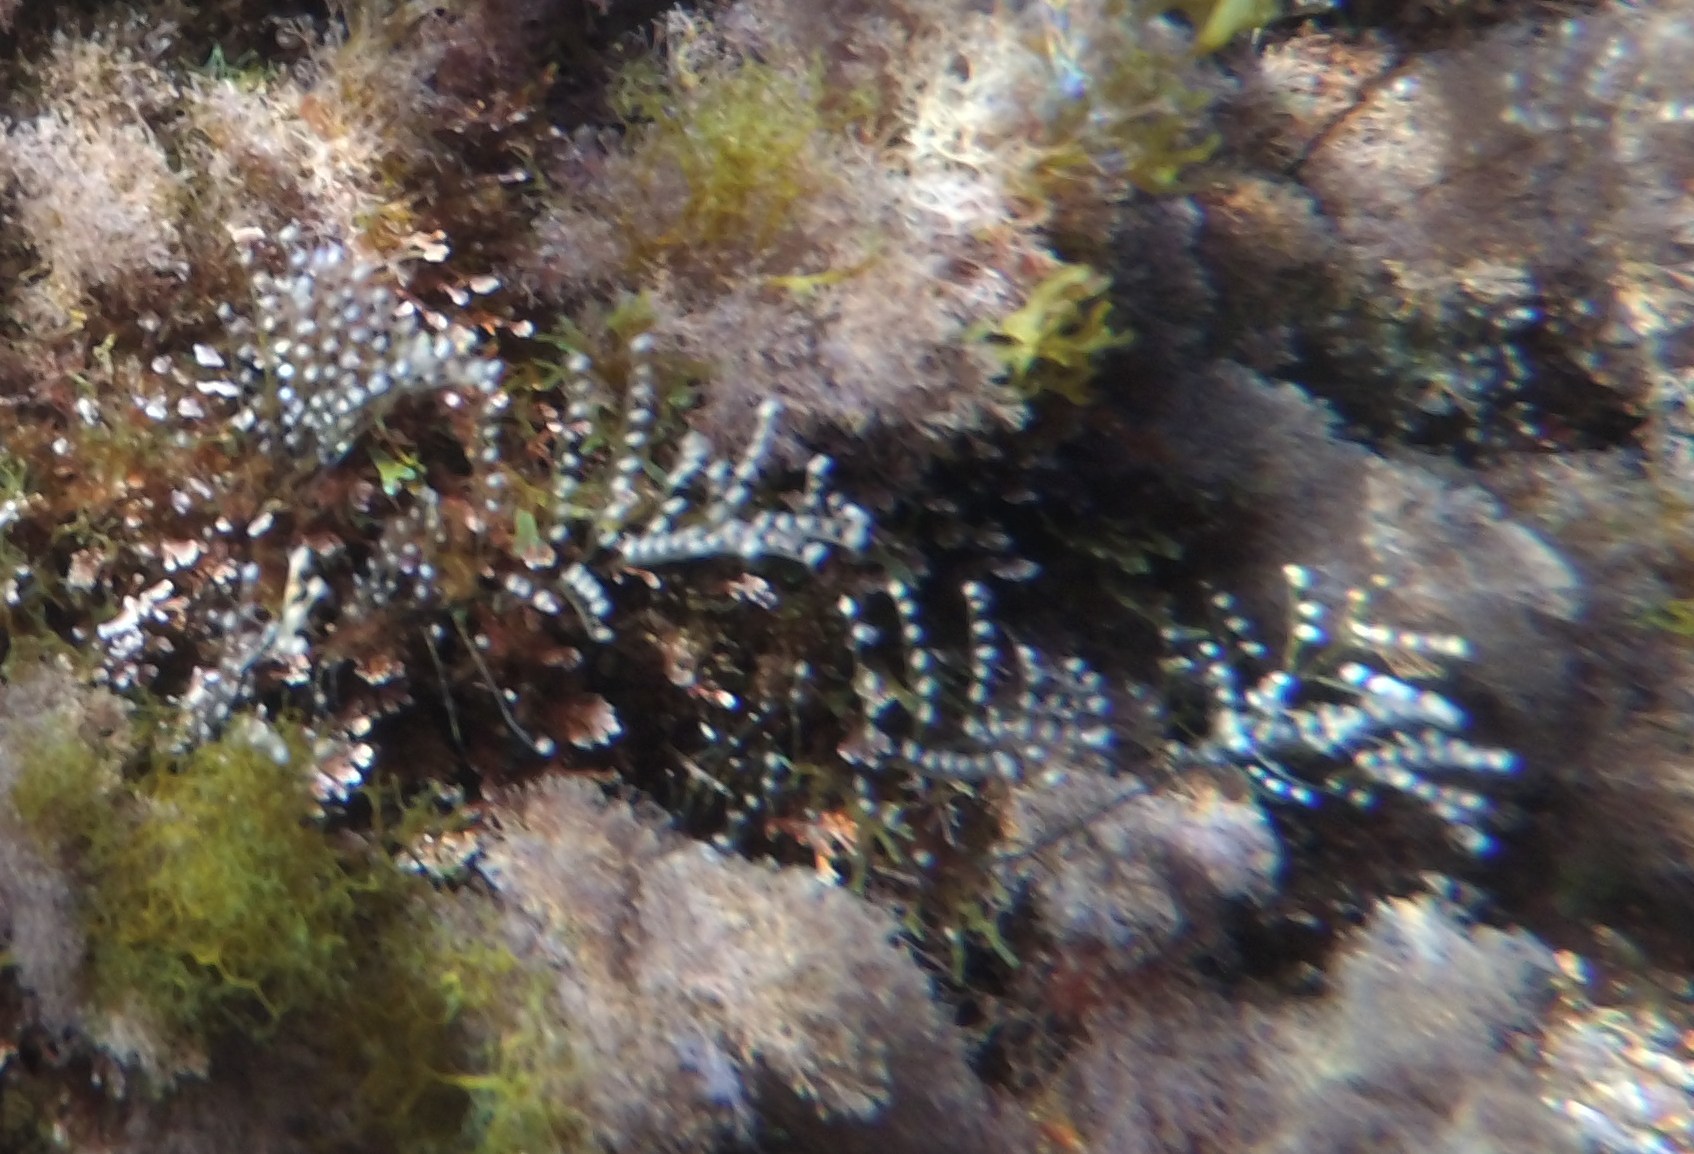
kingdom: Animalia
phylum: Cnidaria
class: Hydrozoa
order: Anthoathecata
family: Pennariidae
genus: Pennaria
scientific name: Pennaria disticha
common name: Feather hydroid
